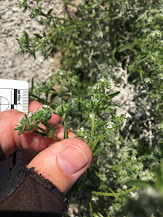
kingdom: Plantae
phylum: Tracheophyta
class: Magnoliopsida
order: Boraginales
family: Boraginaceae
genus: Cryptantha
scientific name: Cryptantha maritima
